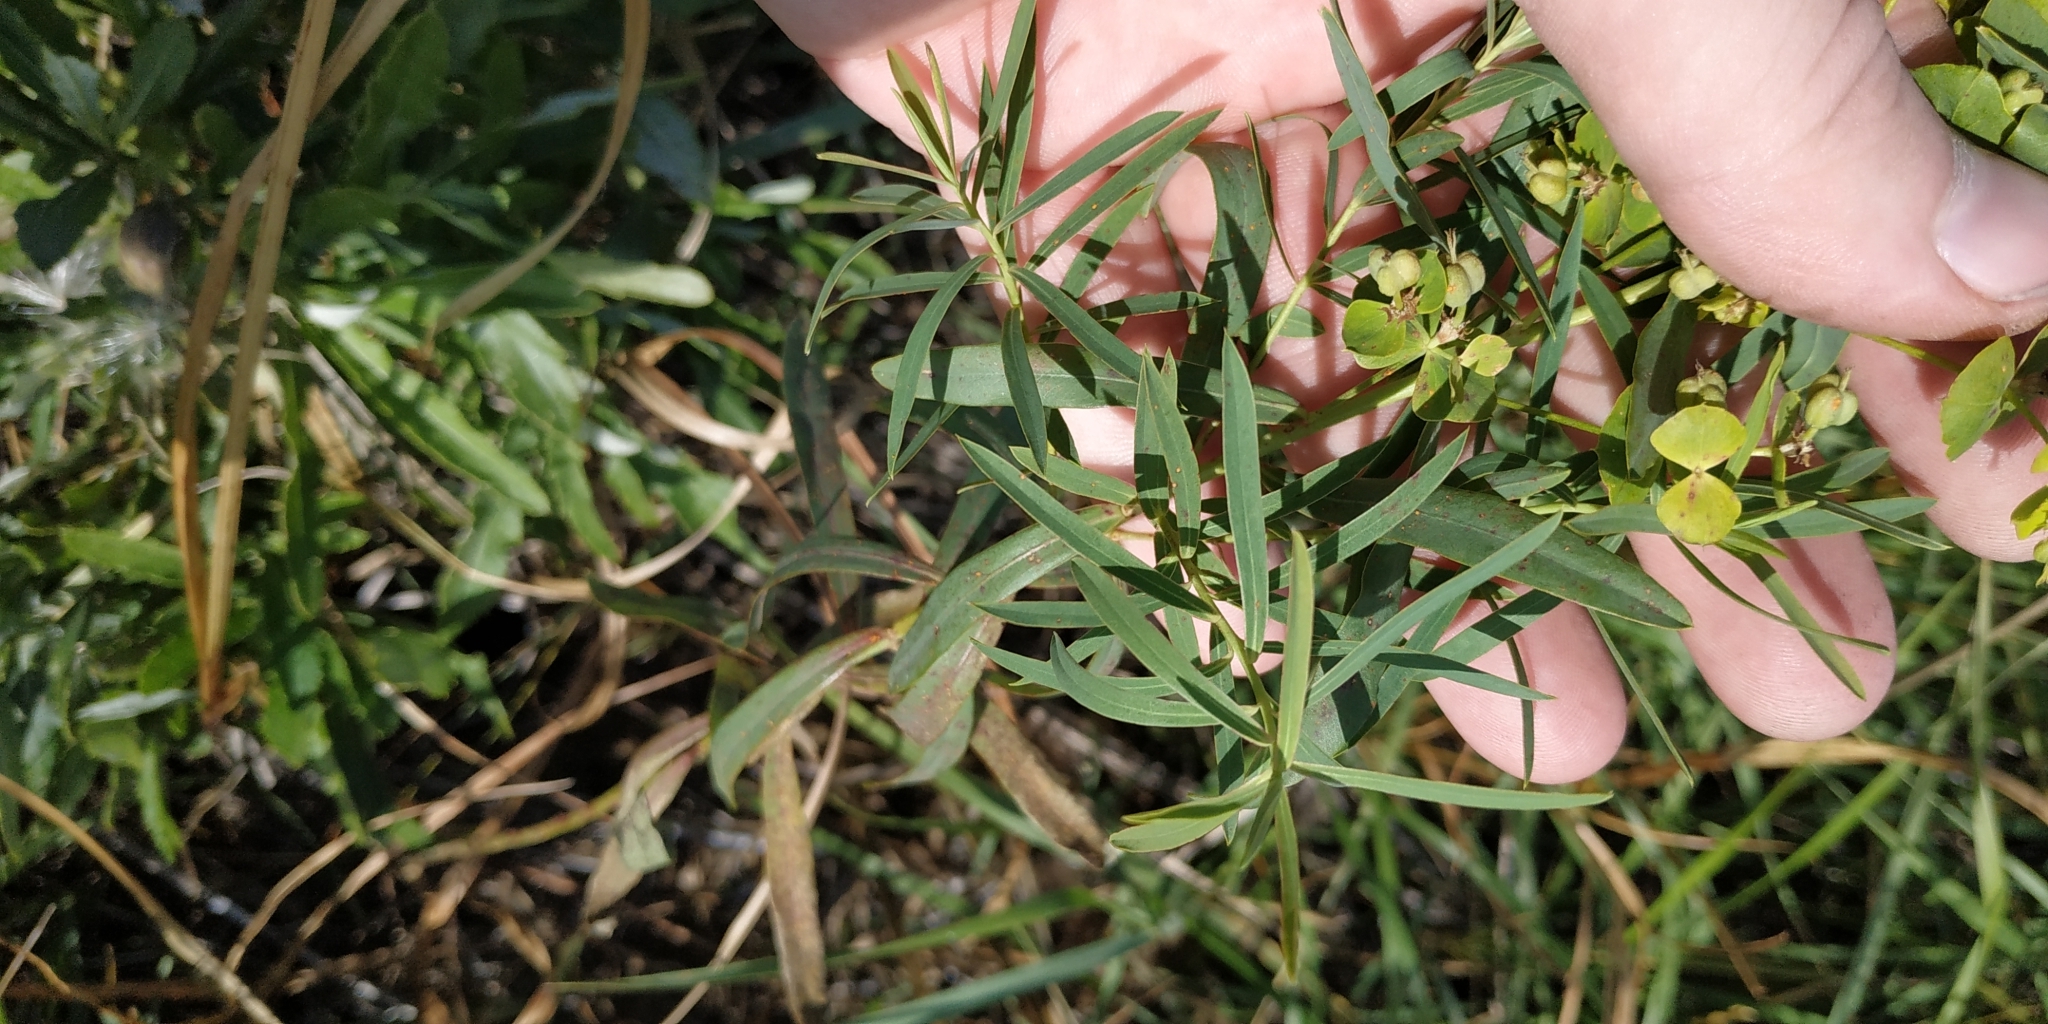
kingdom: Plantae
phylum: Tracheophyta
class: Magnoliopsida
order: Malpighiales
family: Euphorbiaceae
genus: Euphorbia
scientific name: Euphorbia virgata
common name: Leafy spurge
